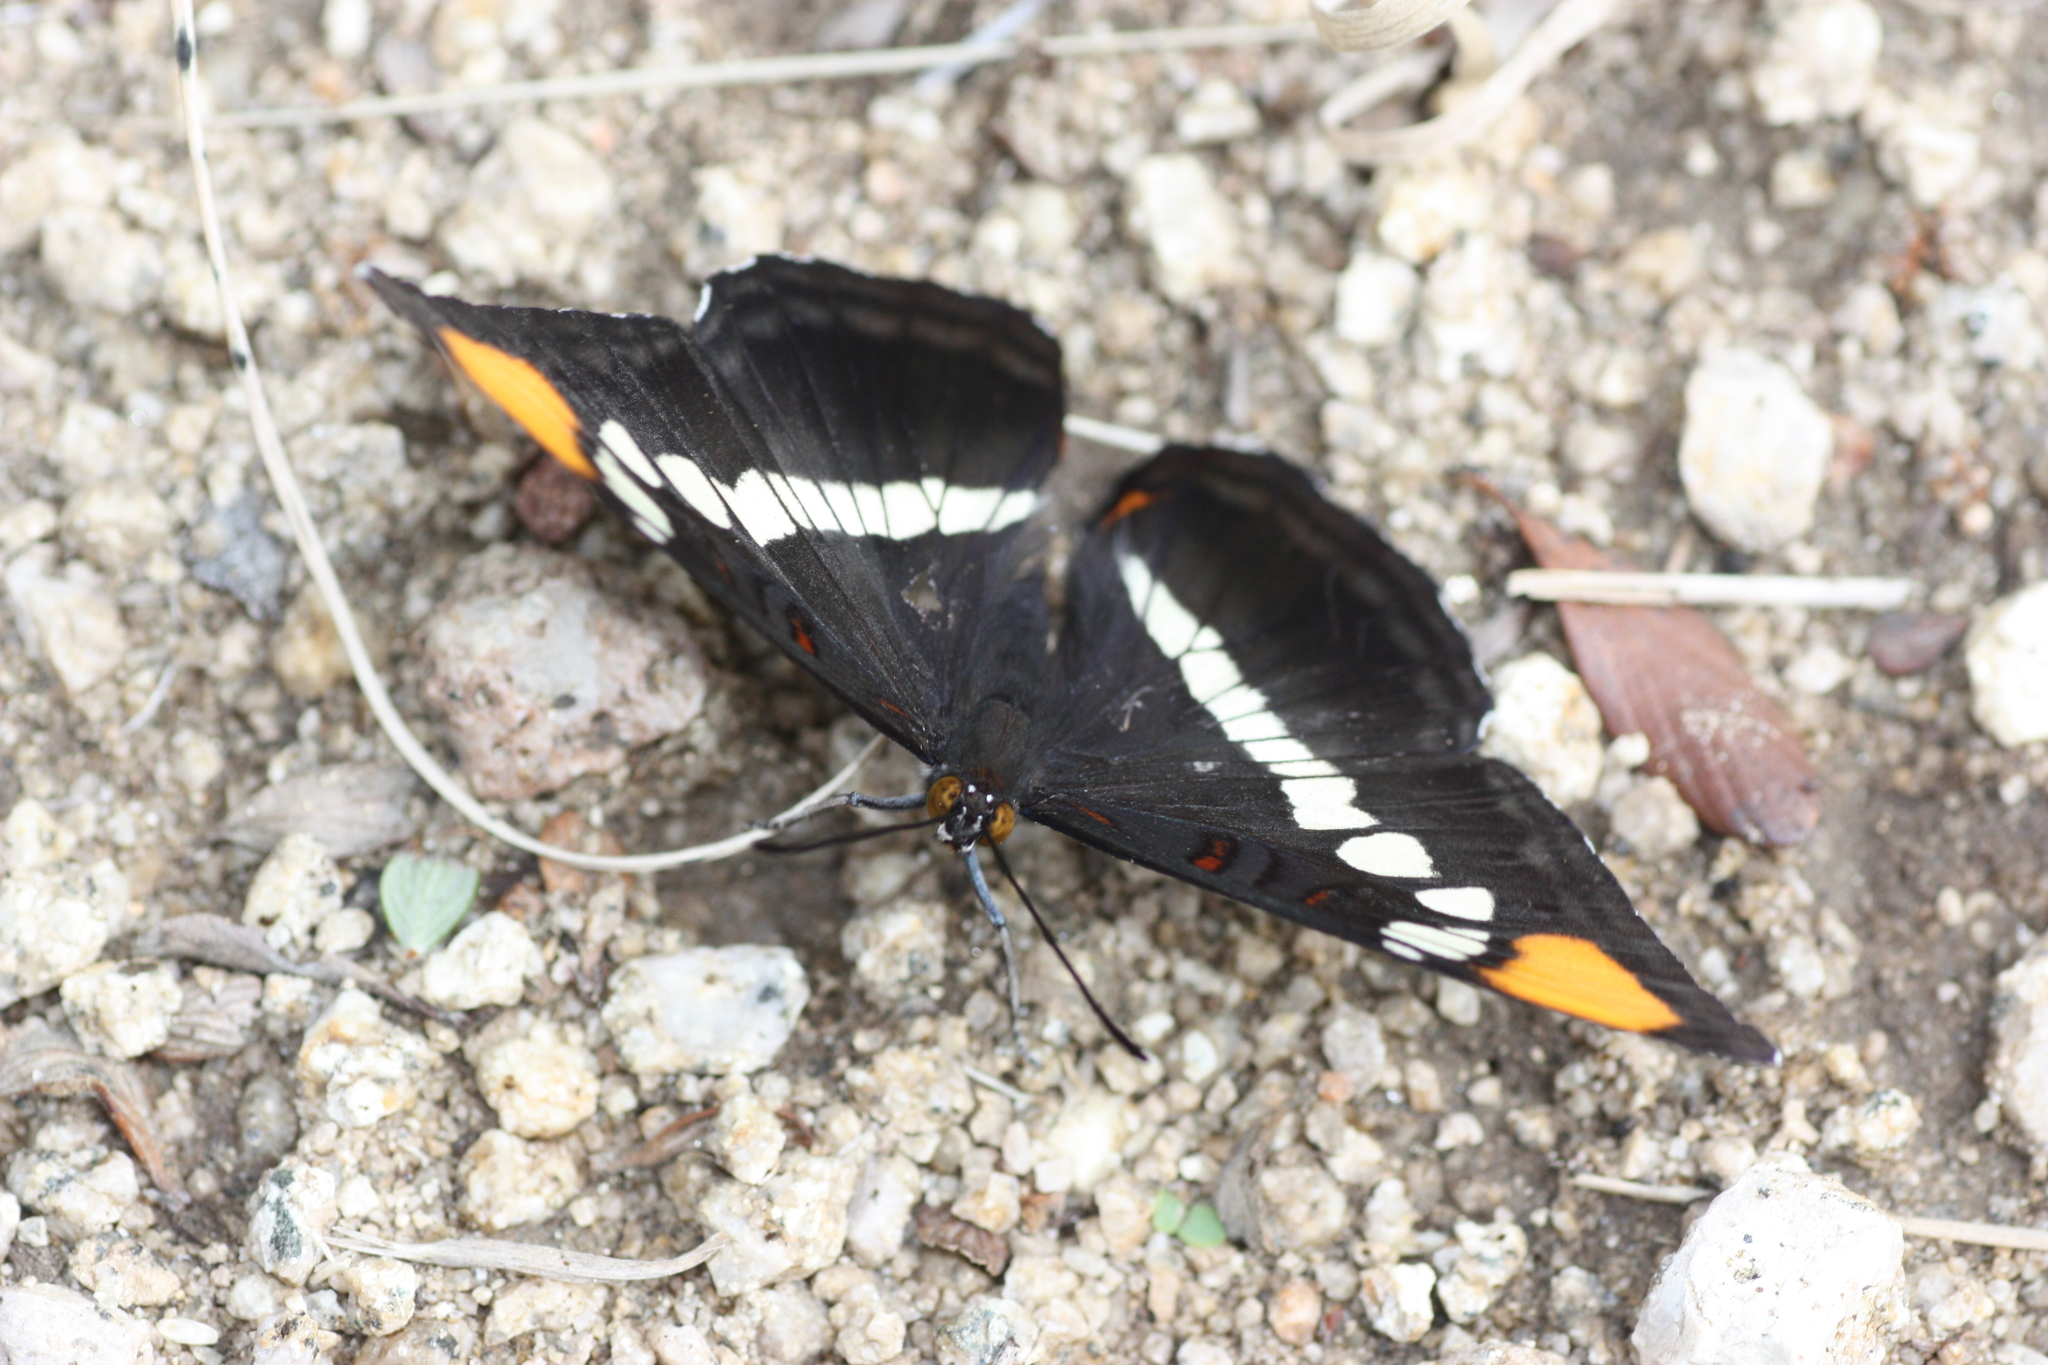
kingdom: Animalia
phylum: Arthropoda
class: Insecta
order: Lepidoptera
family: Nymphalidae
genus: Limenitis
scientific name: Limenitis bredowii
